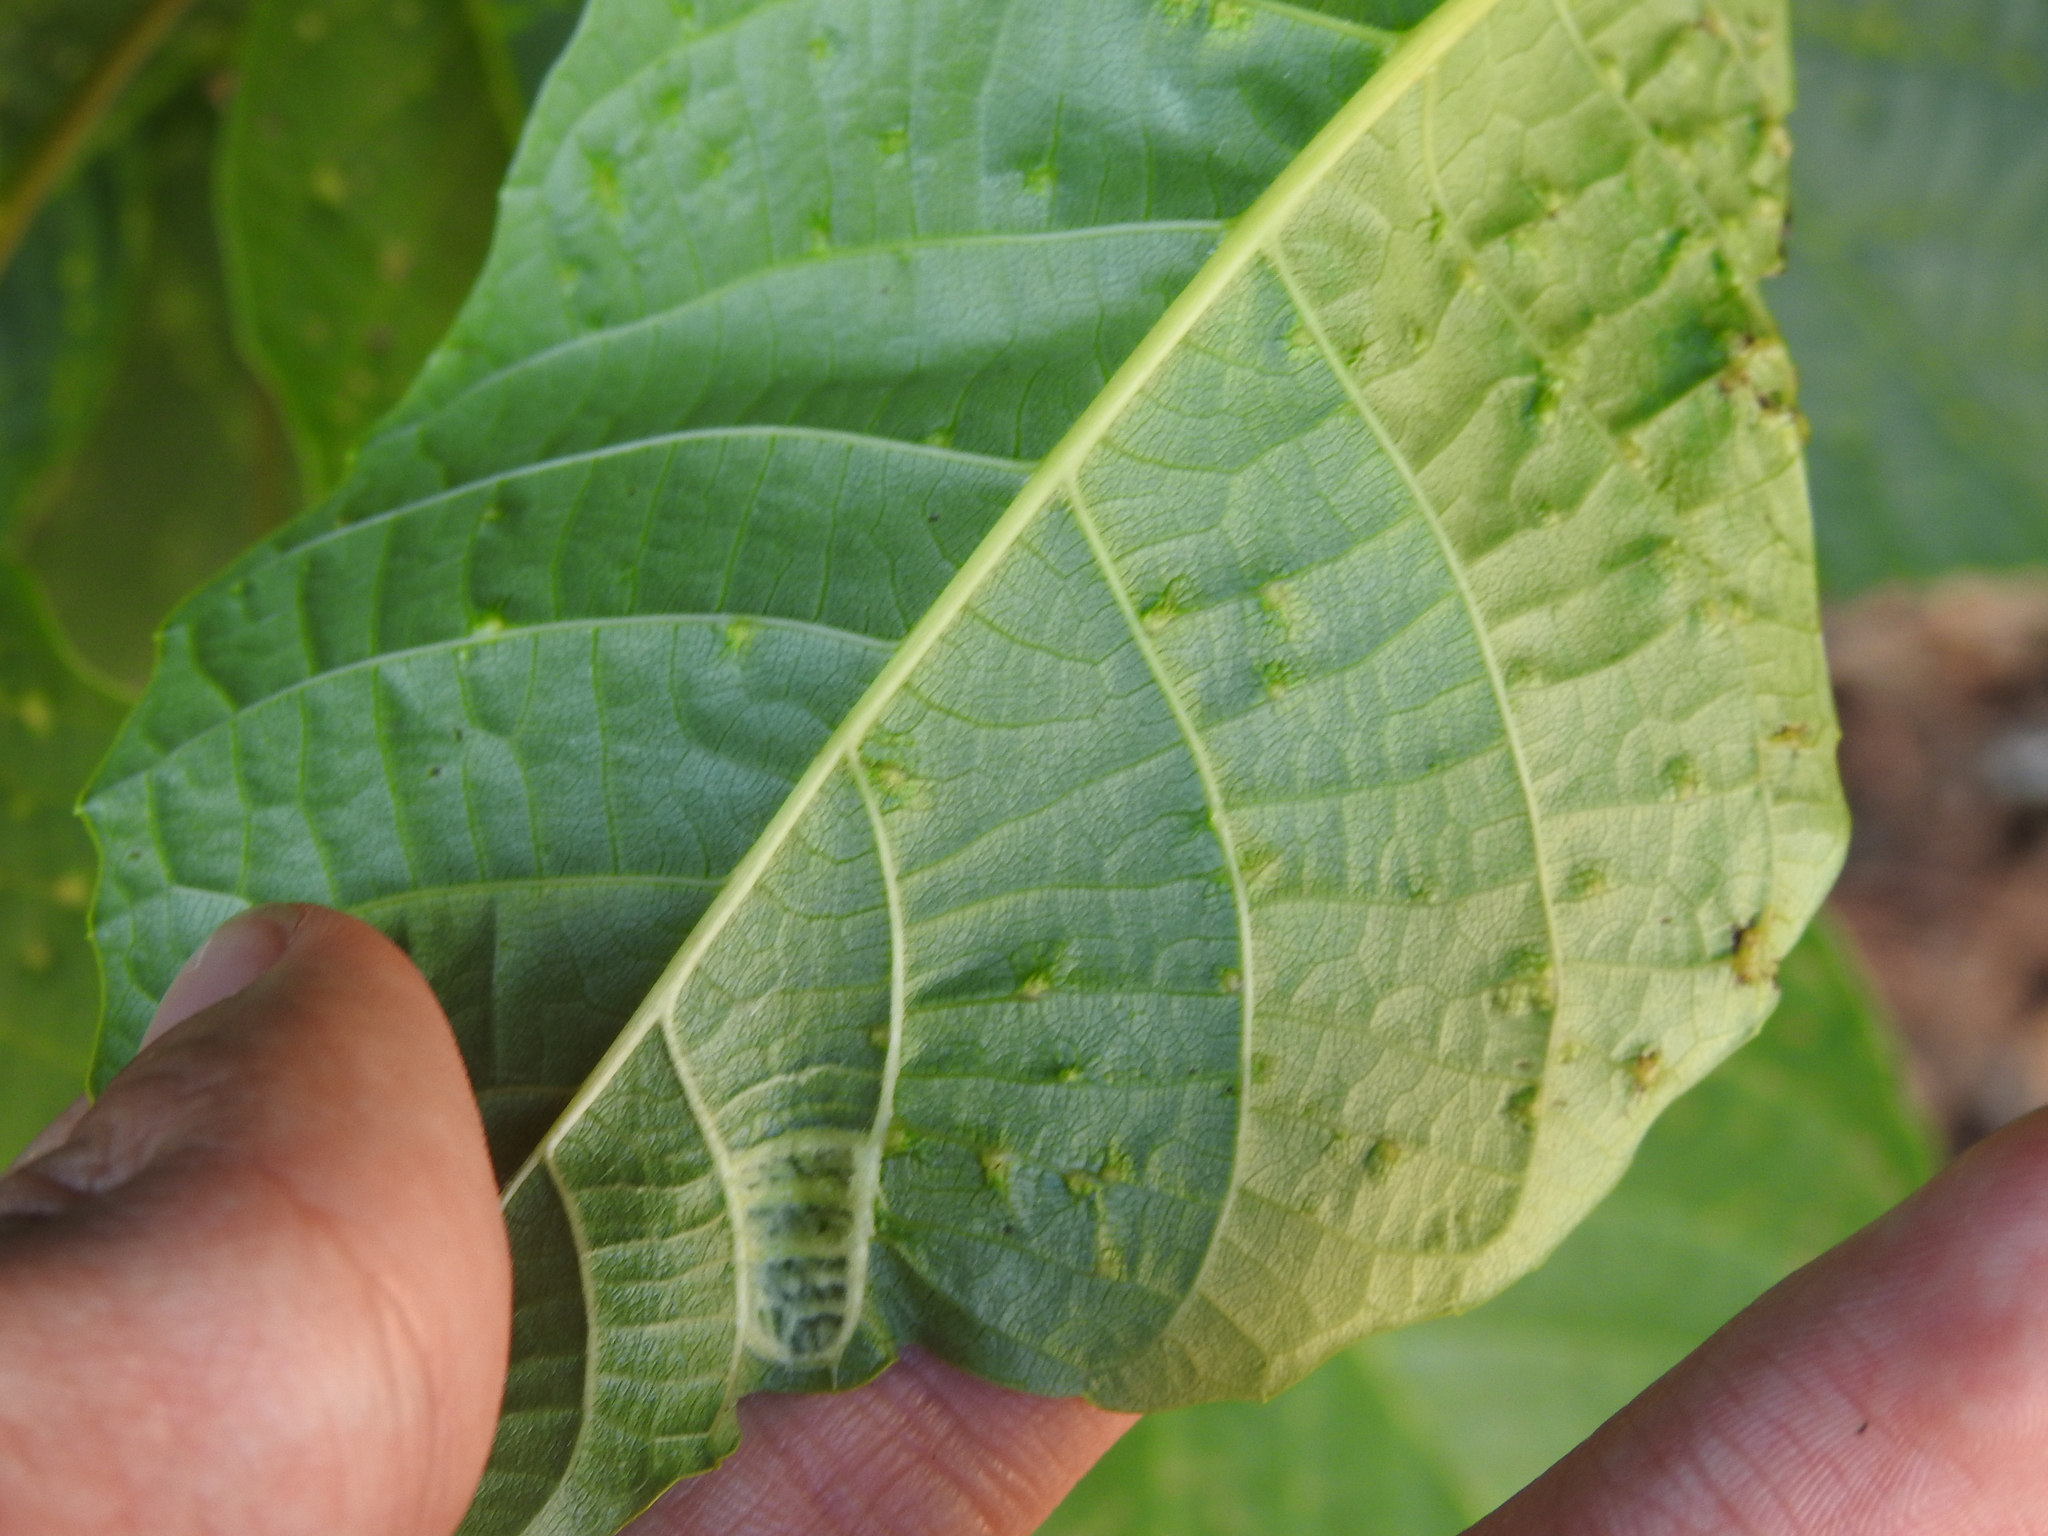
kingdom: Animalia
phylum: Arthropoda
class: Arachnida
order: Trombidiformes
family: Eriophyidae
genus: Aceria
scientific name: Aceria tristriata
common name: Persian walnut leaf blister mite
